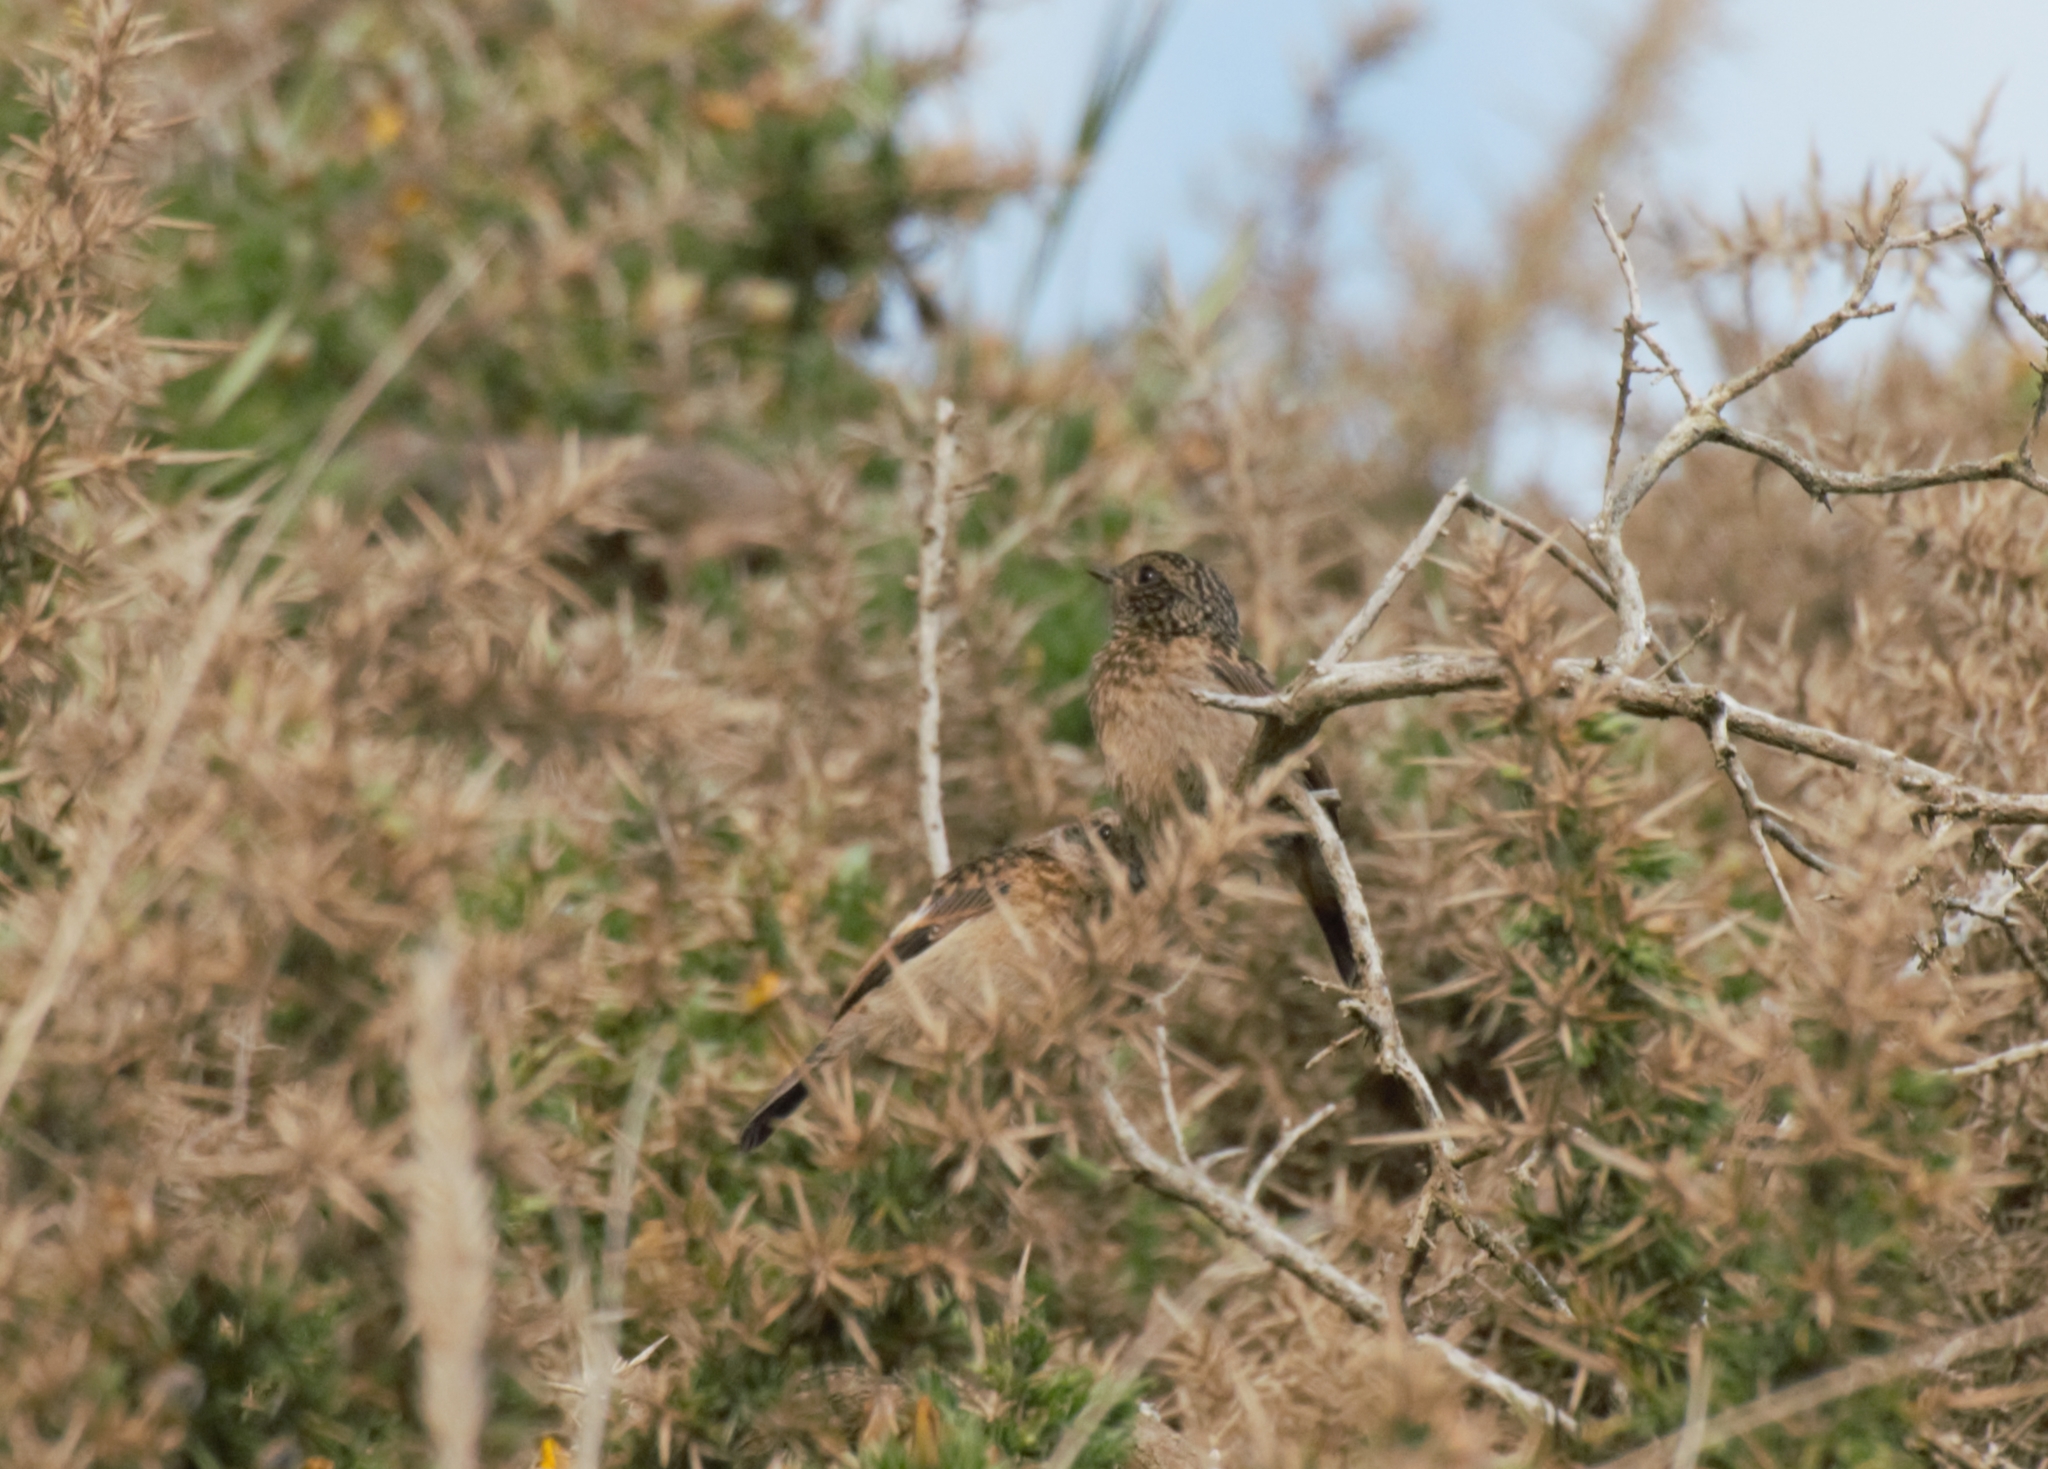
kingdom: Animalia
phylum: Chordata
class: Aves
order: Passeriformes
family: Muscicapidae
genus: Saxicola
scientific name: Saxicola rubicola
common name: European stonechat
